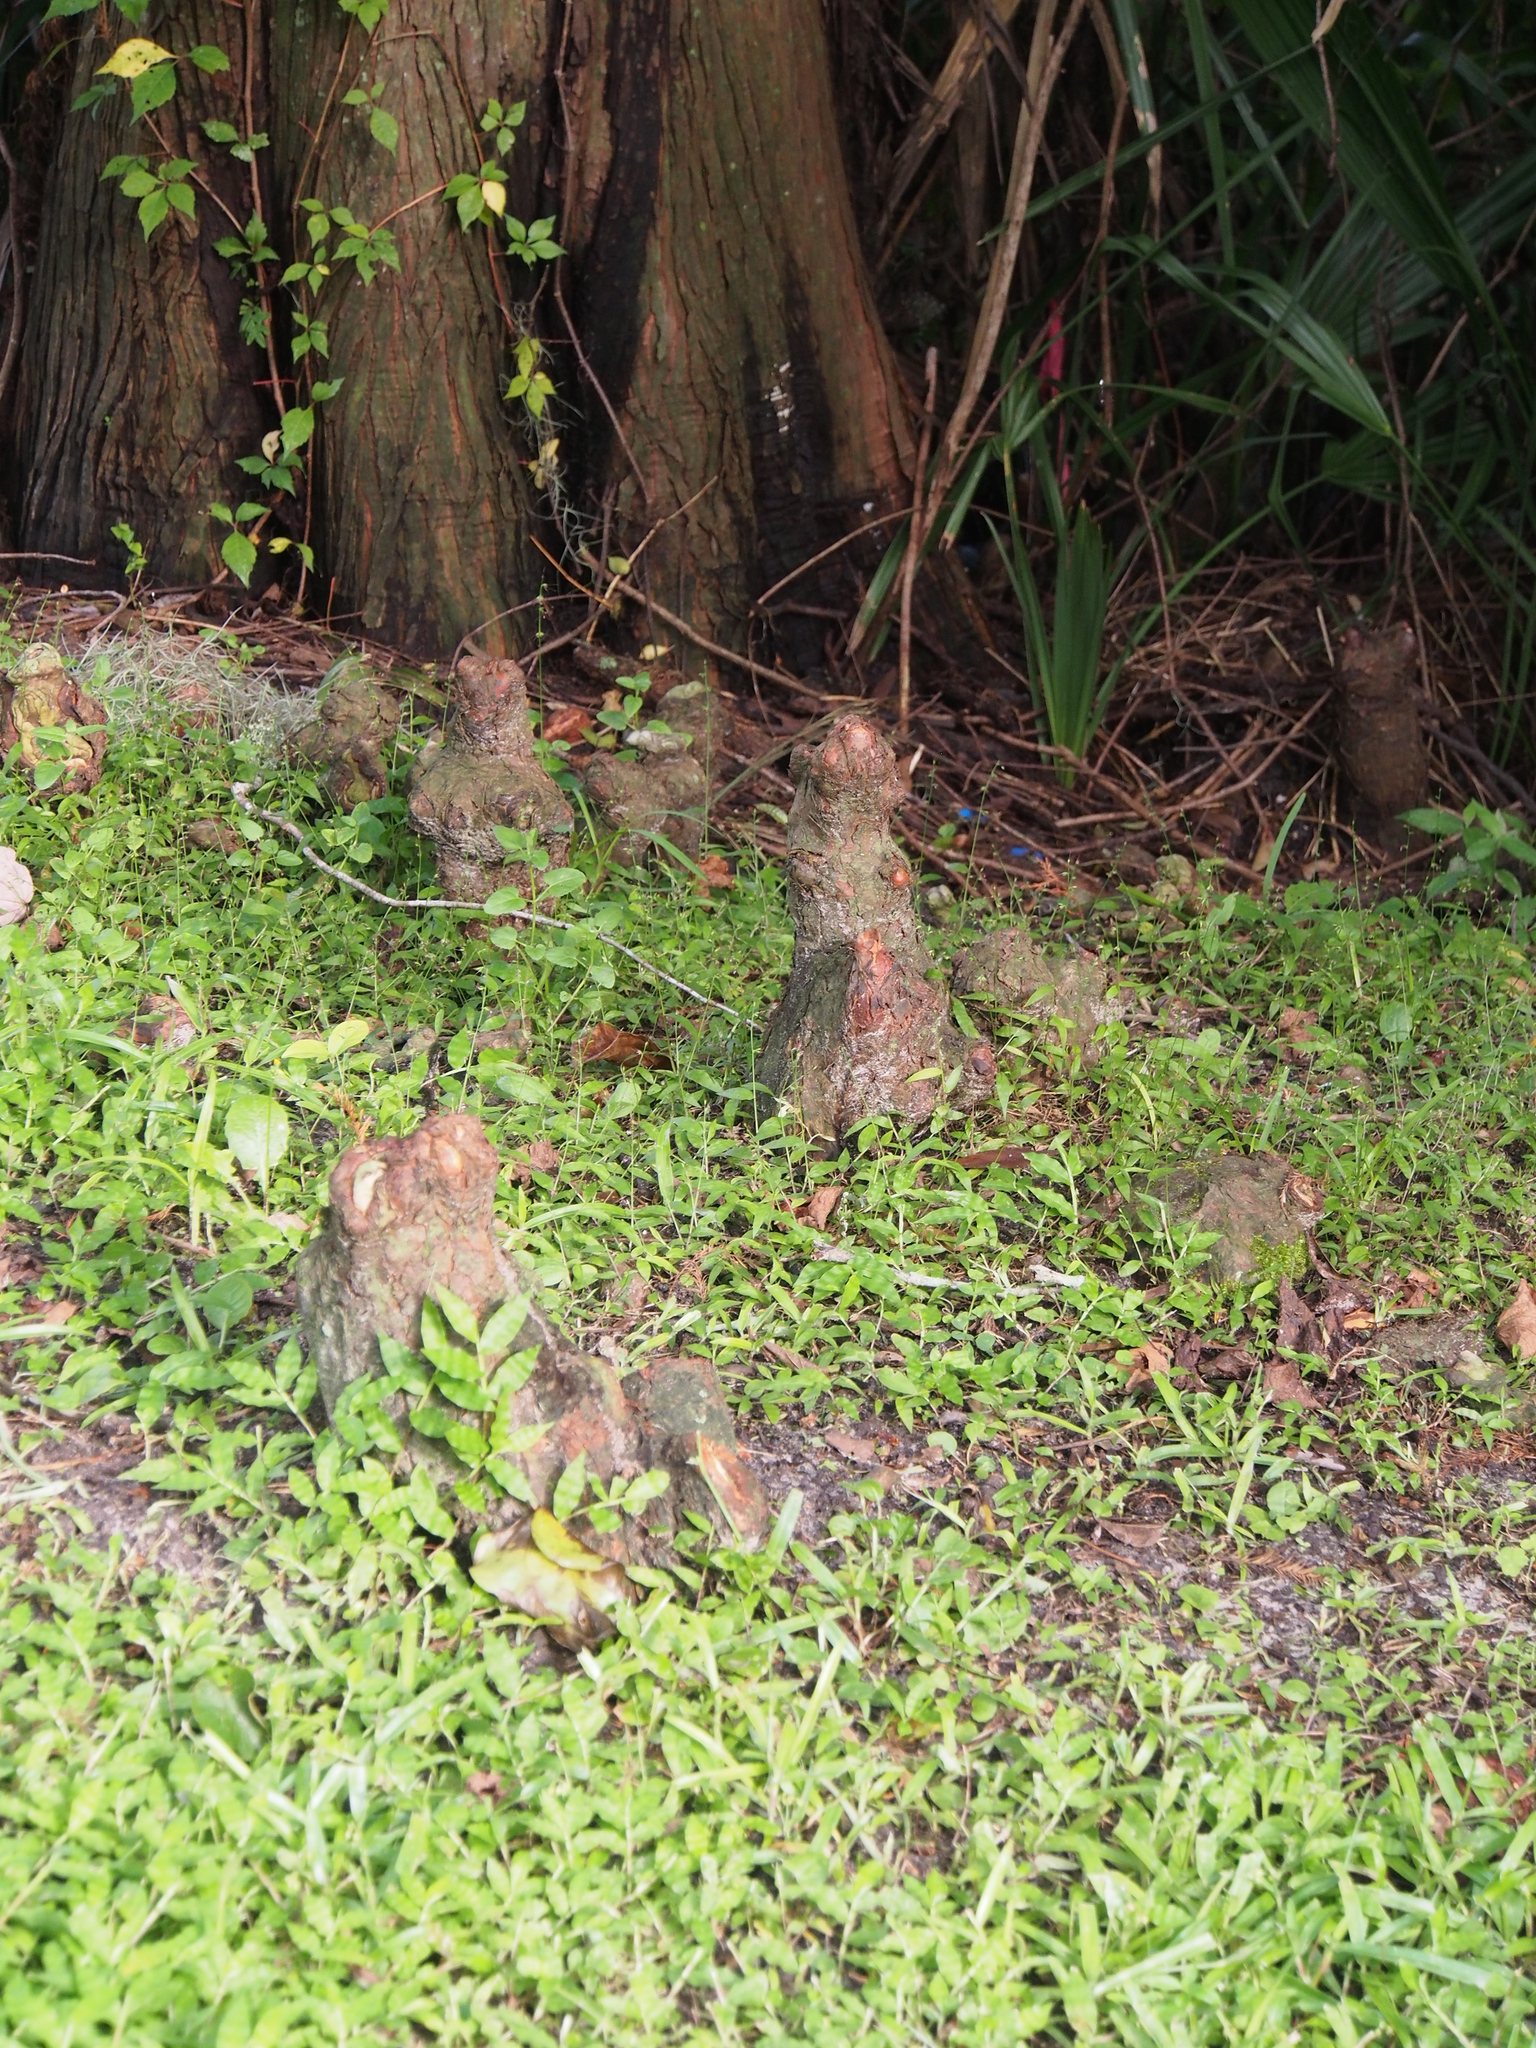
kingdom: Plantae
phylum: Tracheophyta
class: Pinopsida
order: Pinales
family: Cupressaceae
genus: Taxodium
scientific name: Taxodium distichum
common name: Bald cypress
